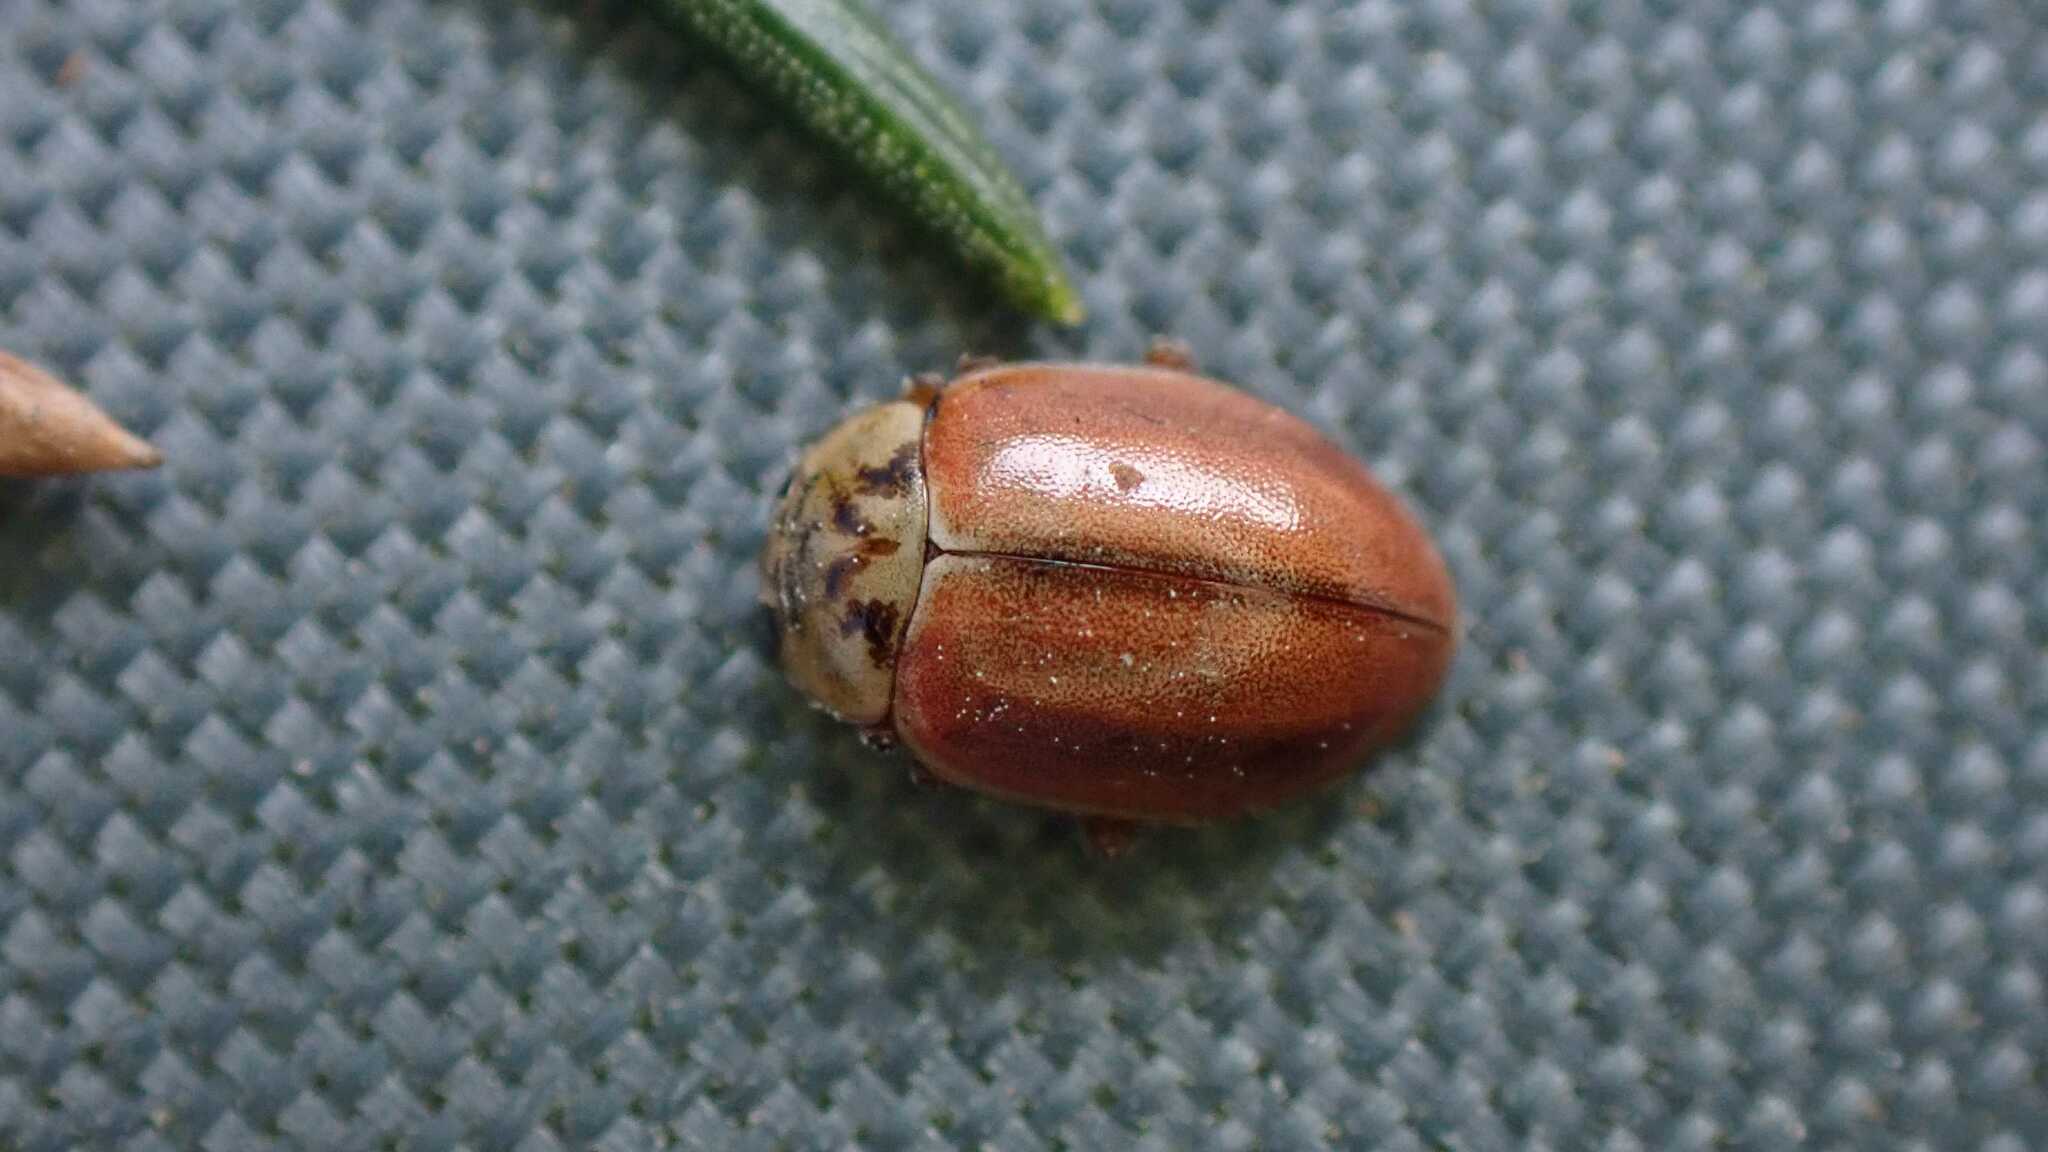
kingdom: Animalia
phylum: Arthropoda
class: Insecta
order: Coleoptera
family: Coccinellidae
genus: Aphidecta
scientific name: Aphidecta obliterata
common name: Larch ladybird
